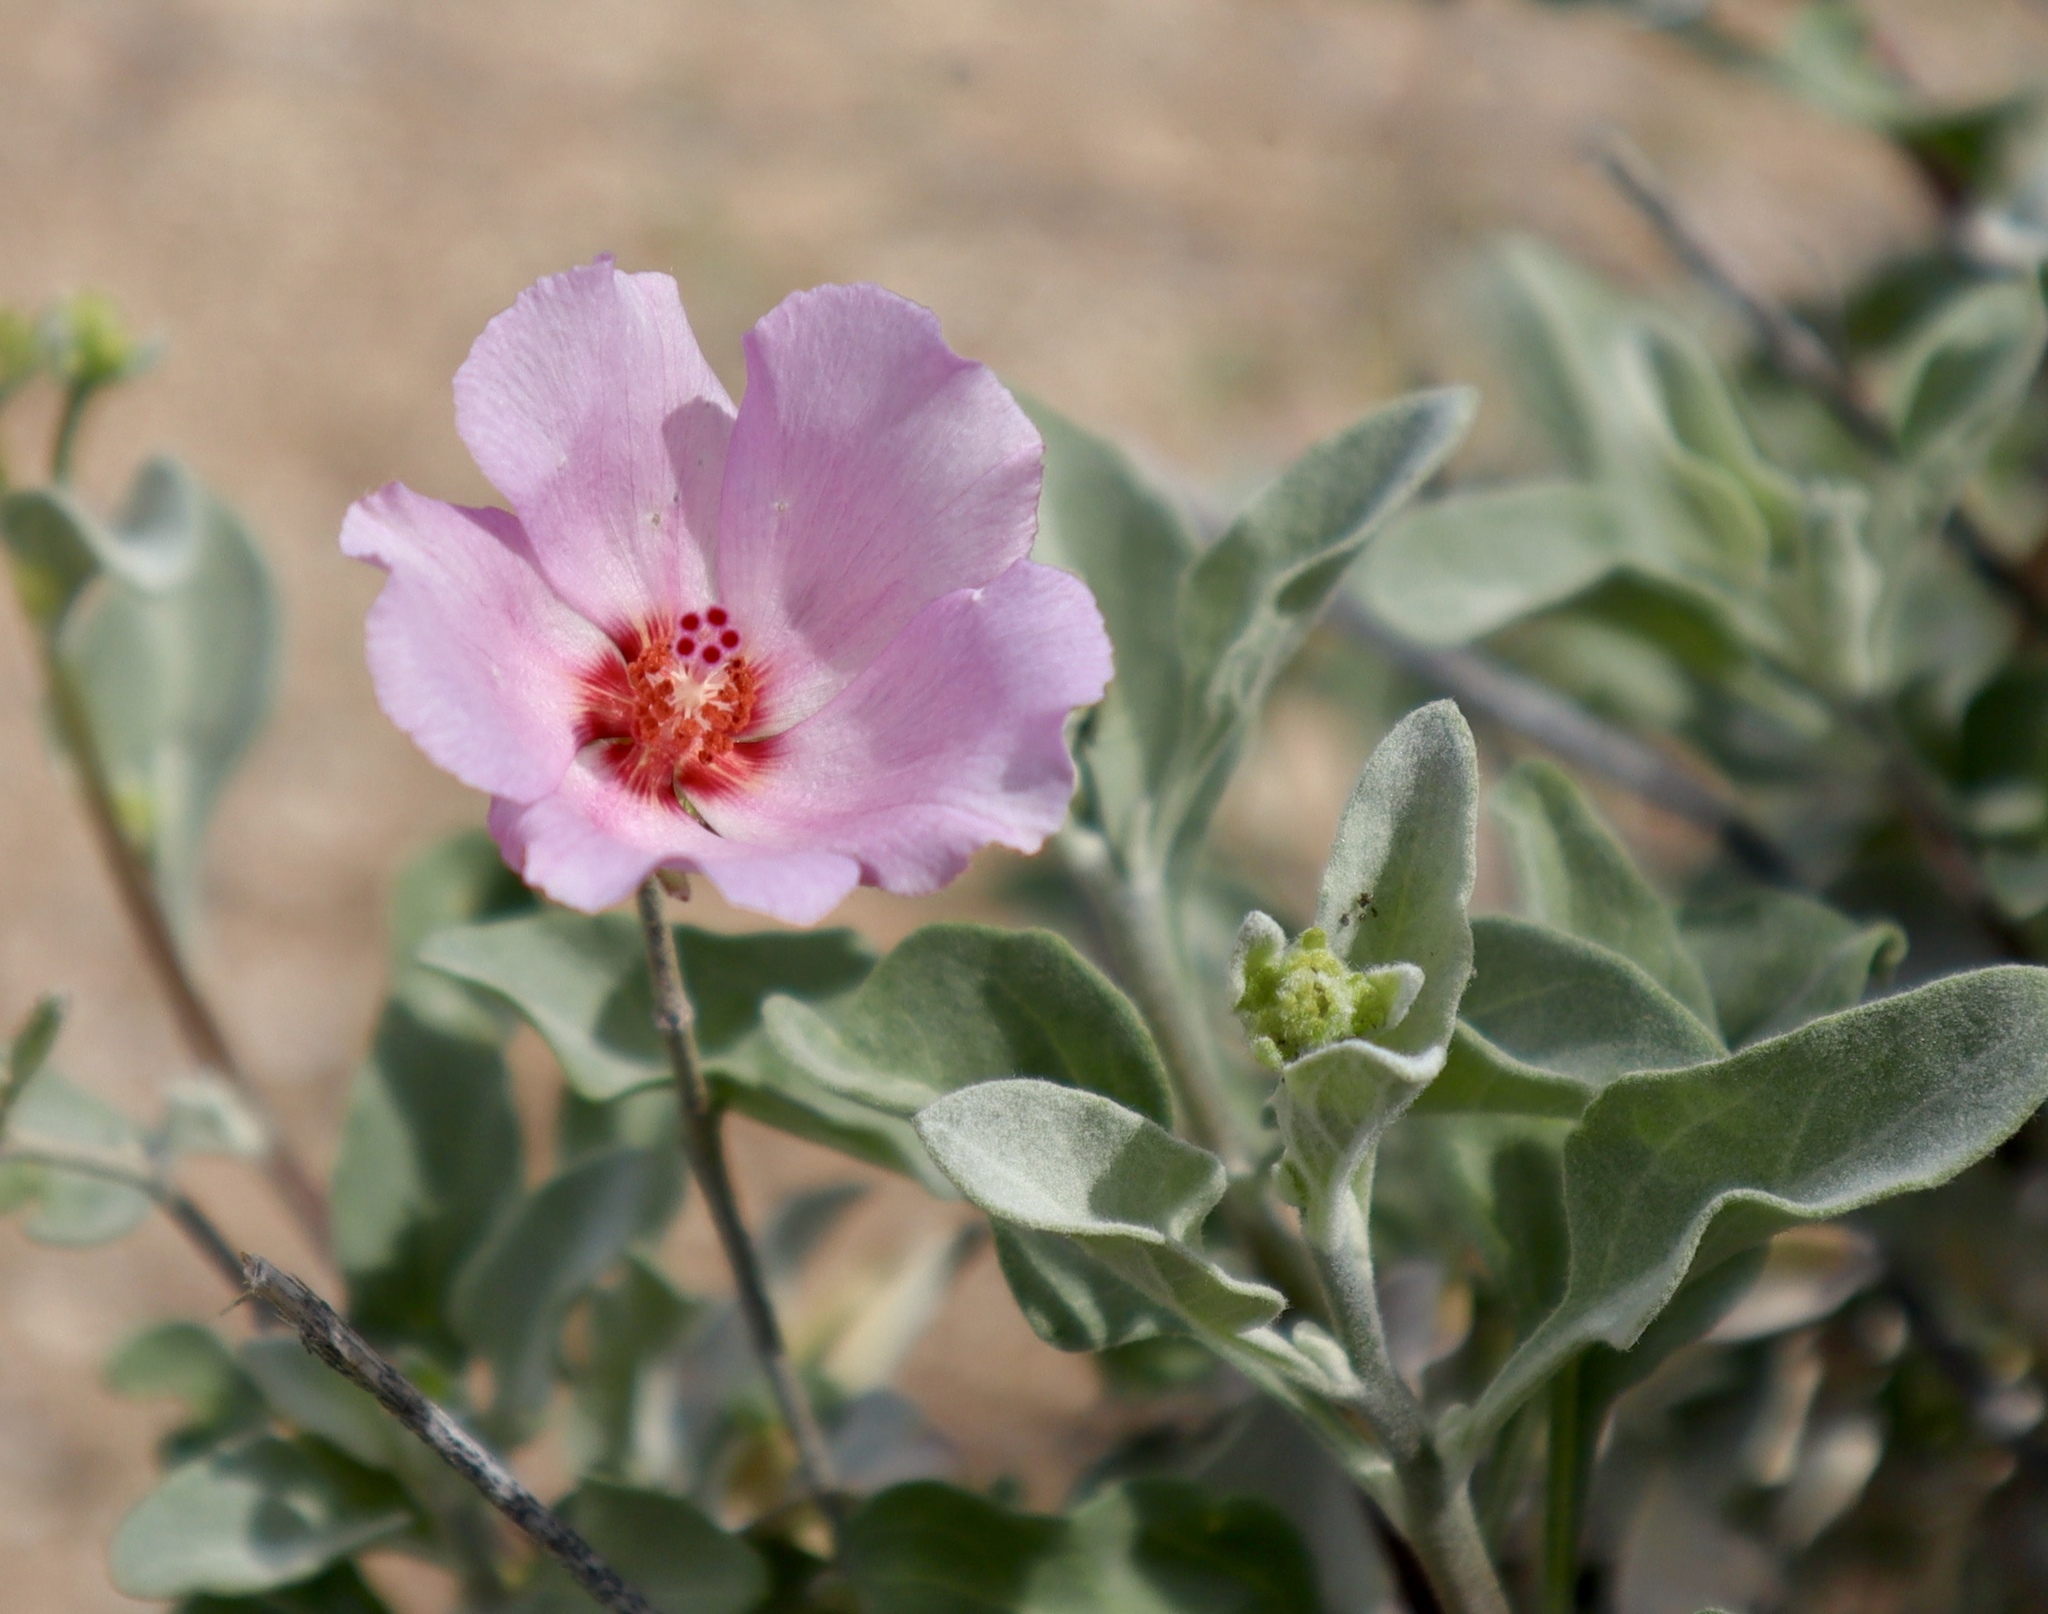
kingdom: Plantae
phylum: Tracheophyta
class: Magnoliopsida
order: Malvales
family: Malvaceae
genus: Hibiscus
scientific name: Hibiscus denudatus
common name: Paleface
